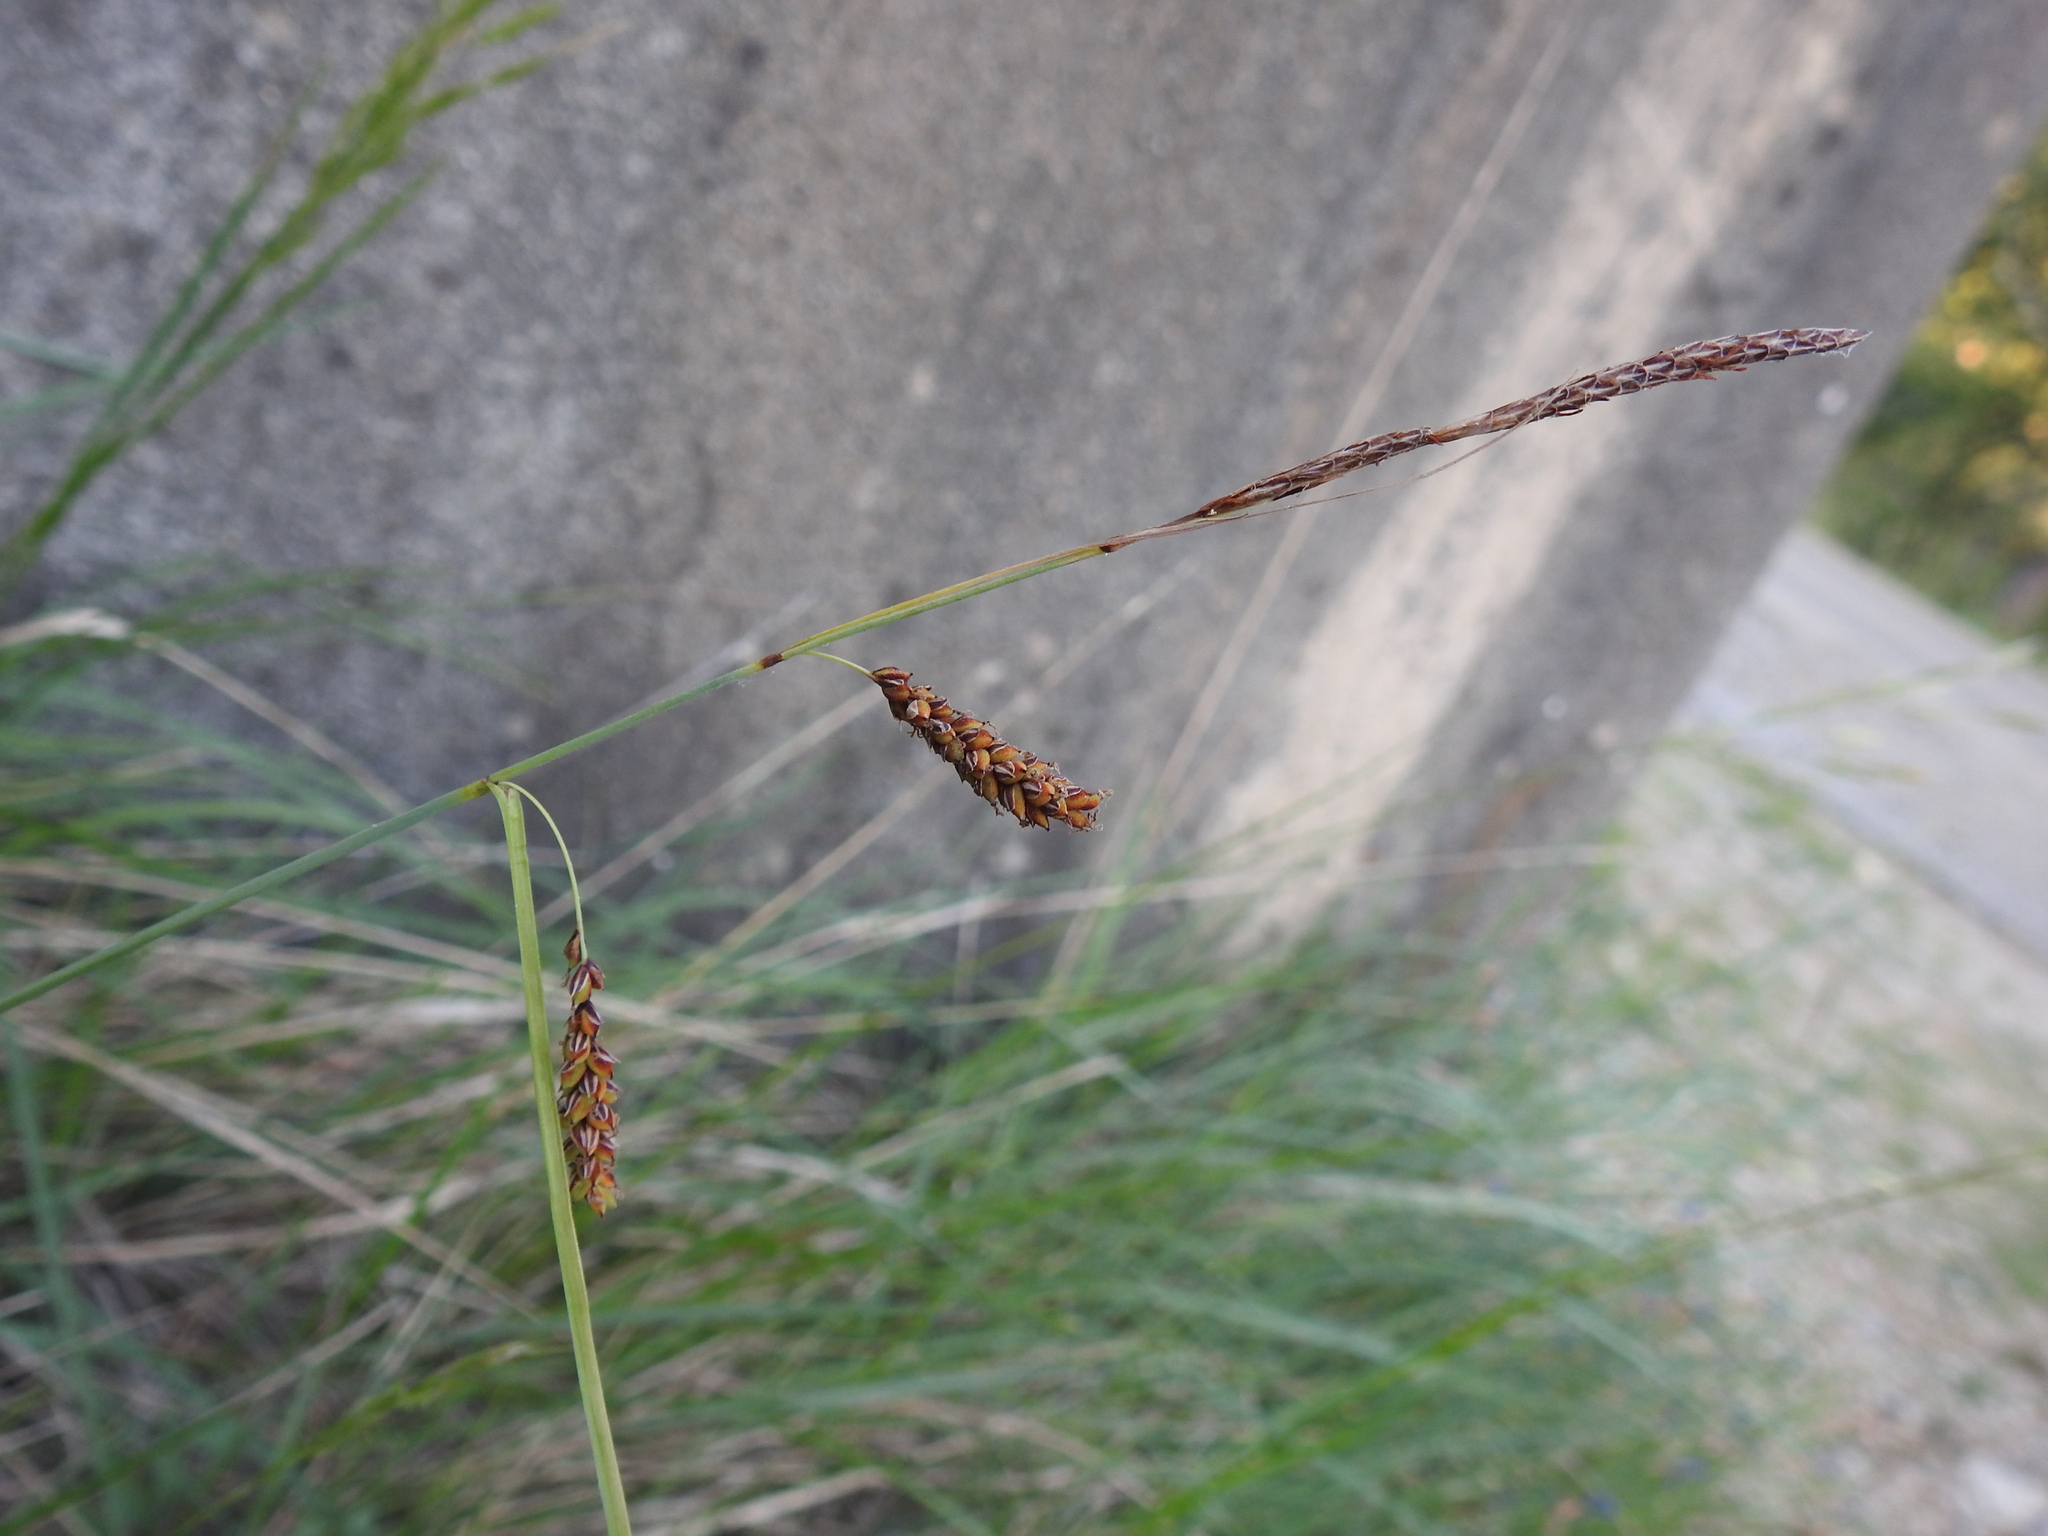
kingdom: Plantae
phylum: Tracheophyta
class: Liliopsida
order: Poales
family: Cyperaceae
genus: Carex
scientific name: Carex flacca
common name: Glaucous sedge
